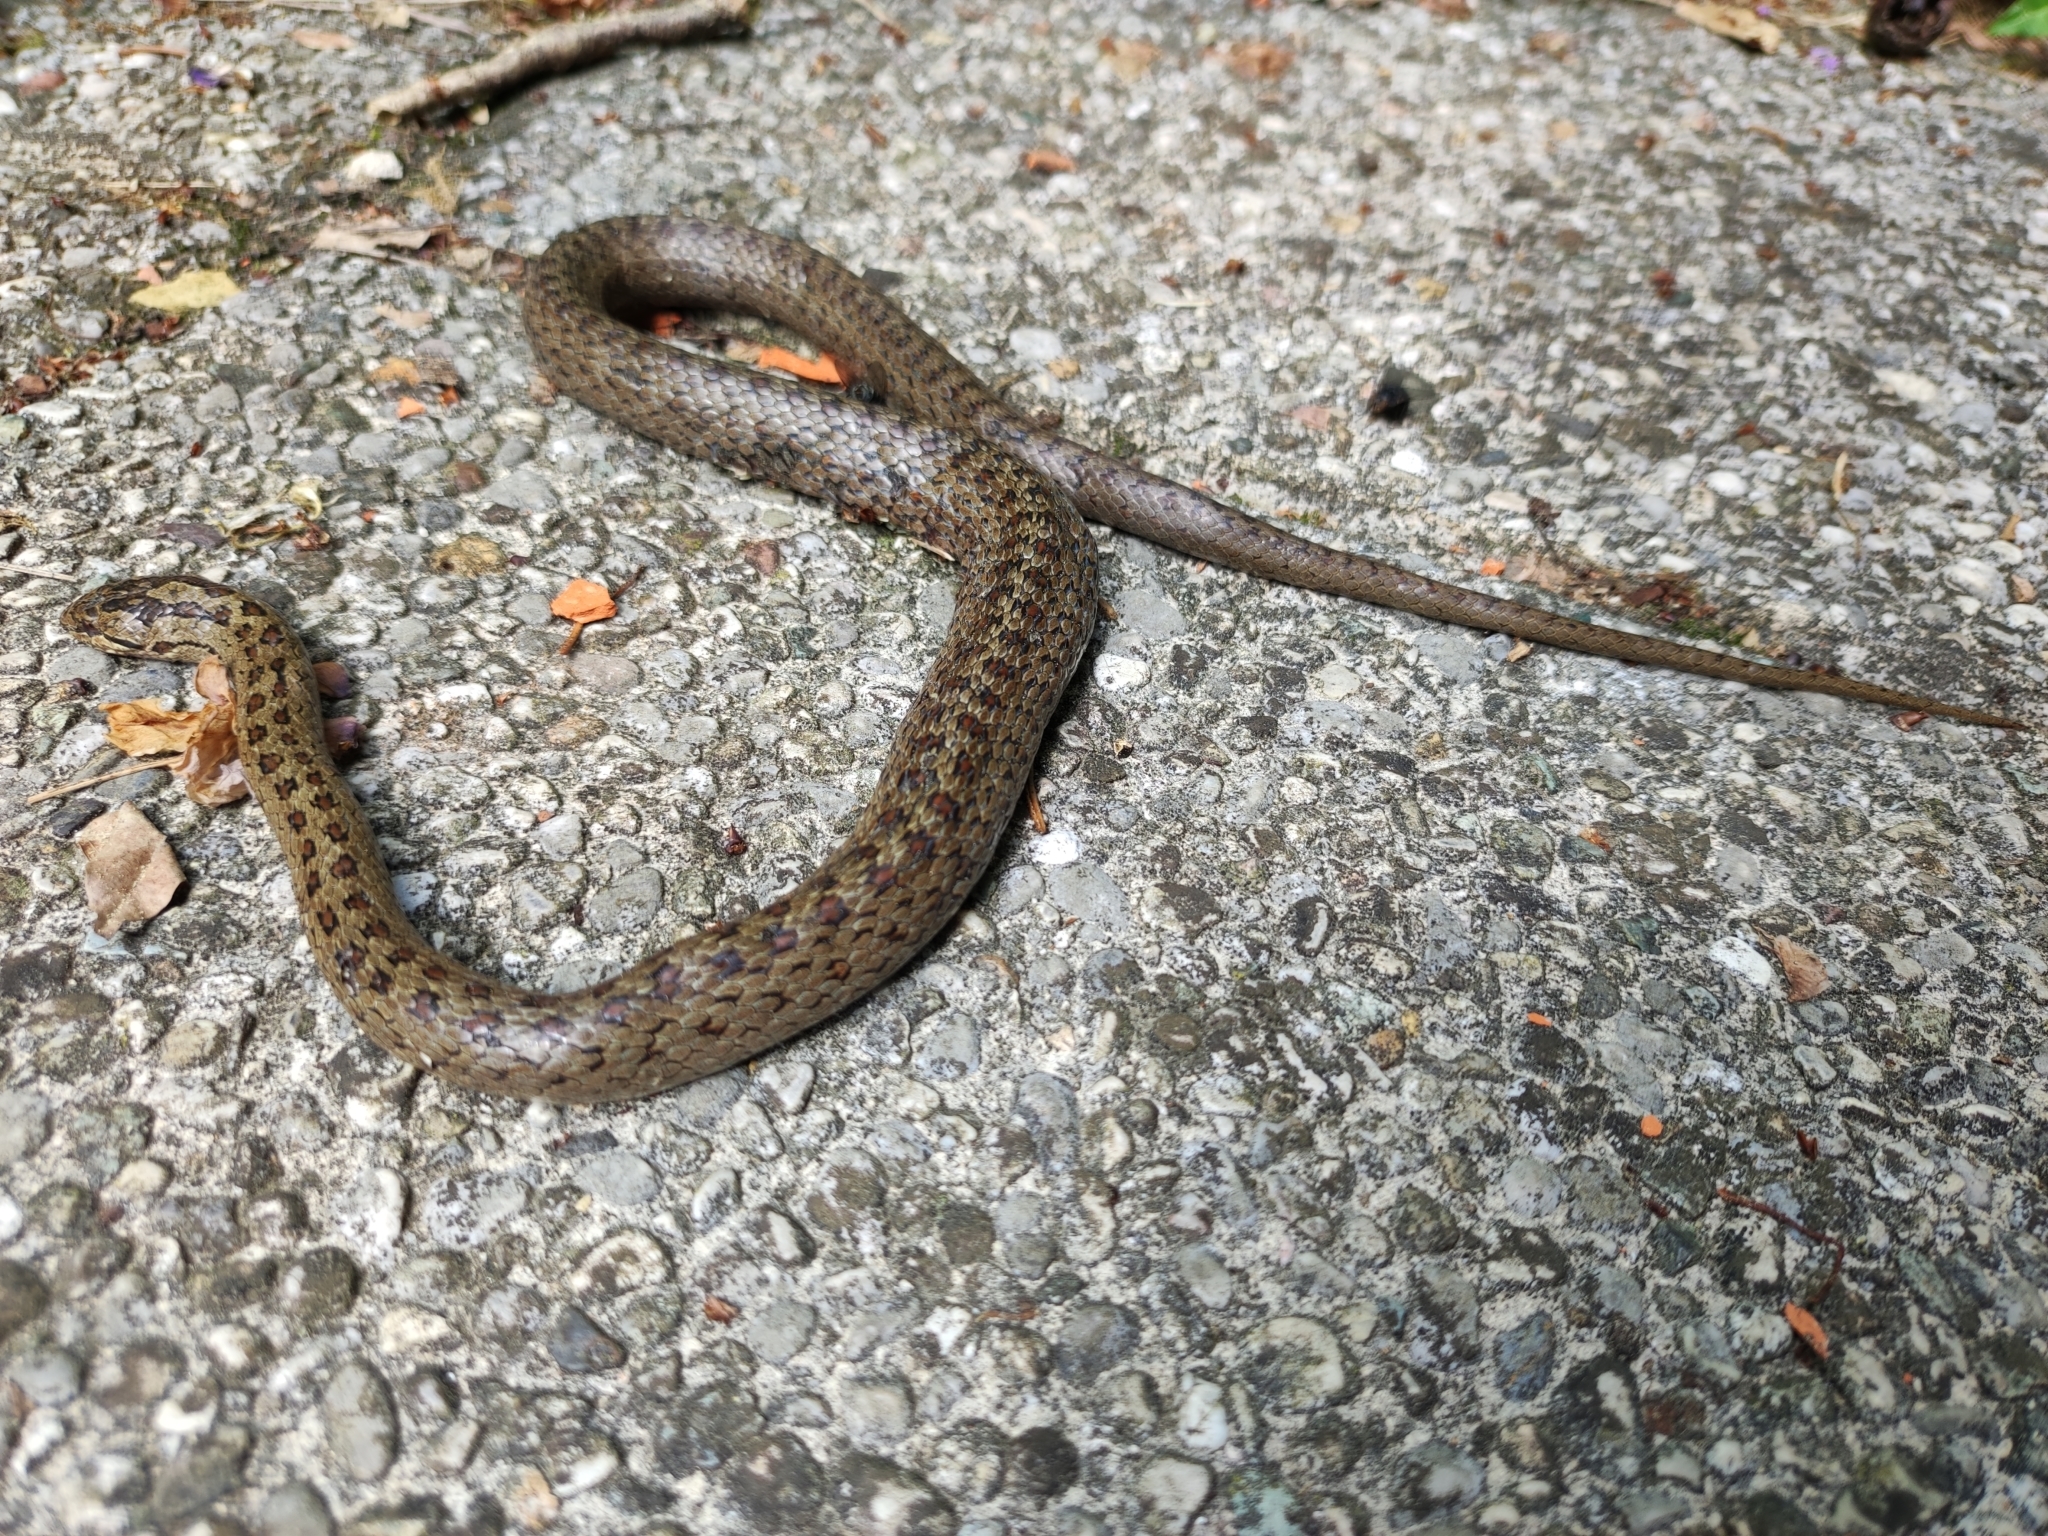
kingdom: Animalia
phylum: Chordata
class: Squamata
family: Colubridae
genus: Coronella
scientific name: Coronella austriaca
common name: Smooth snake
